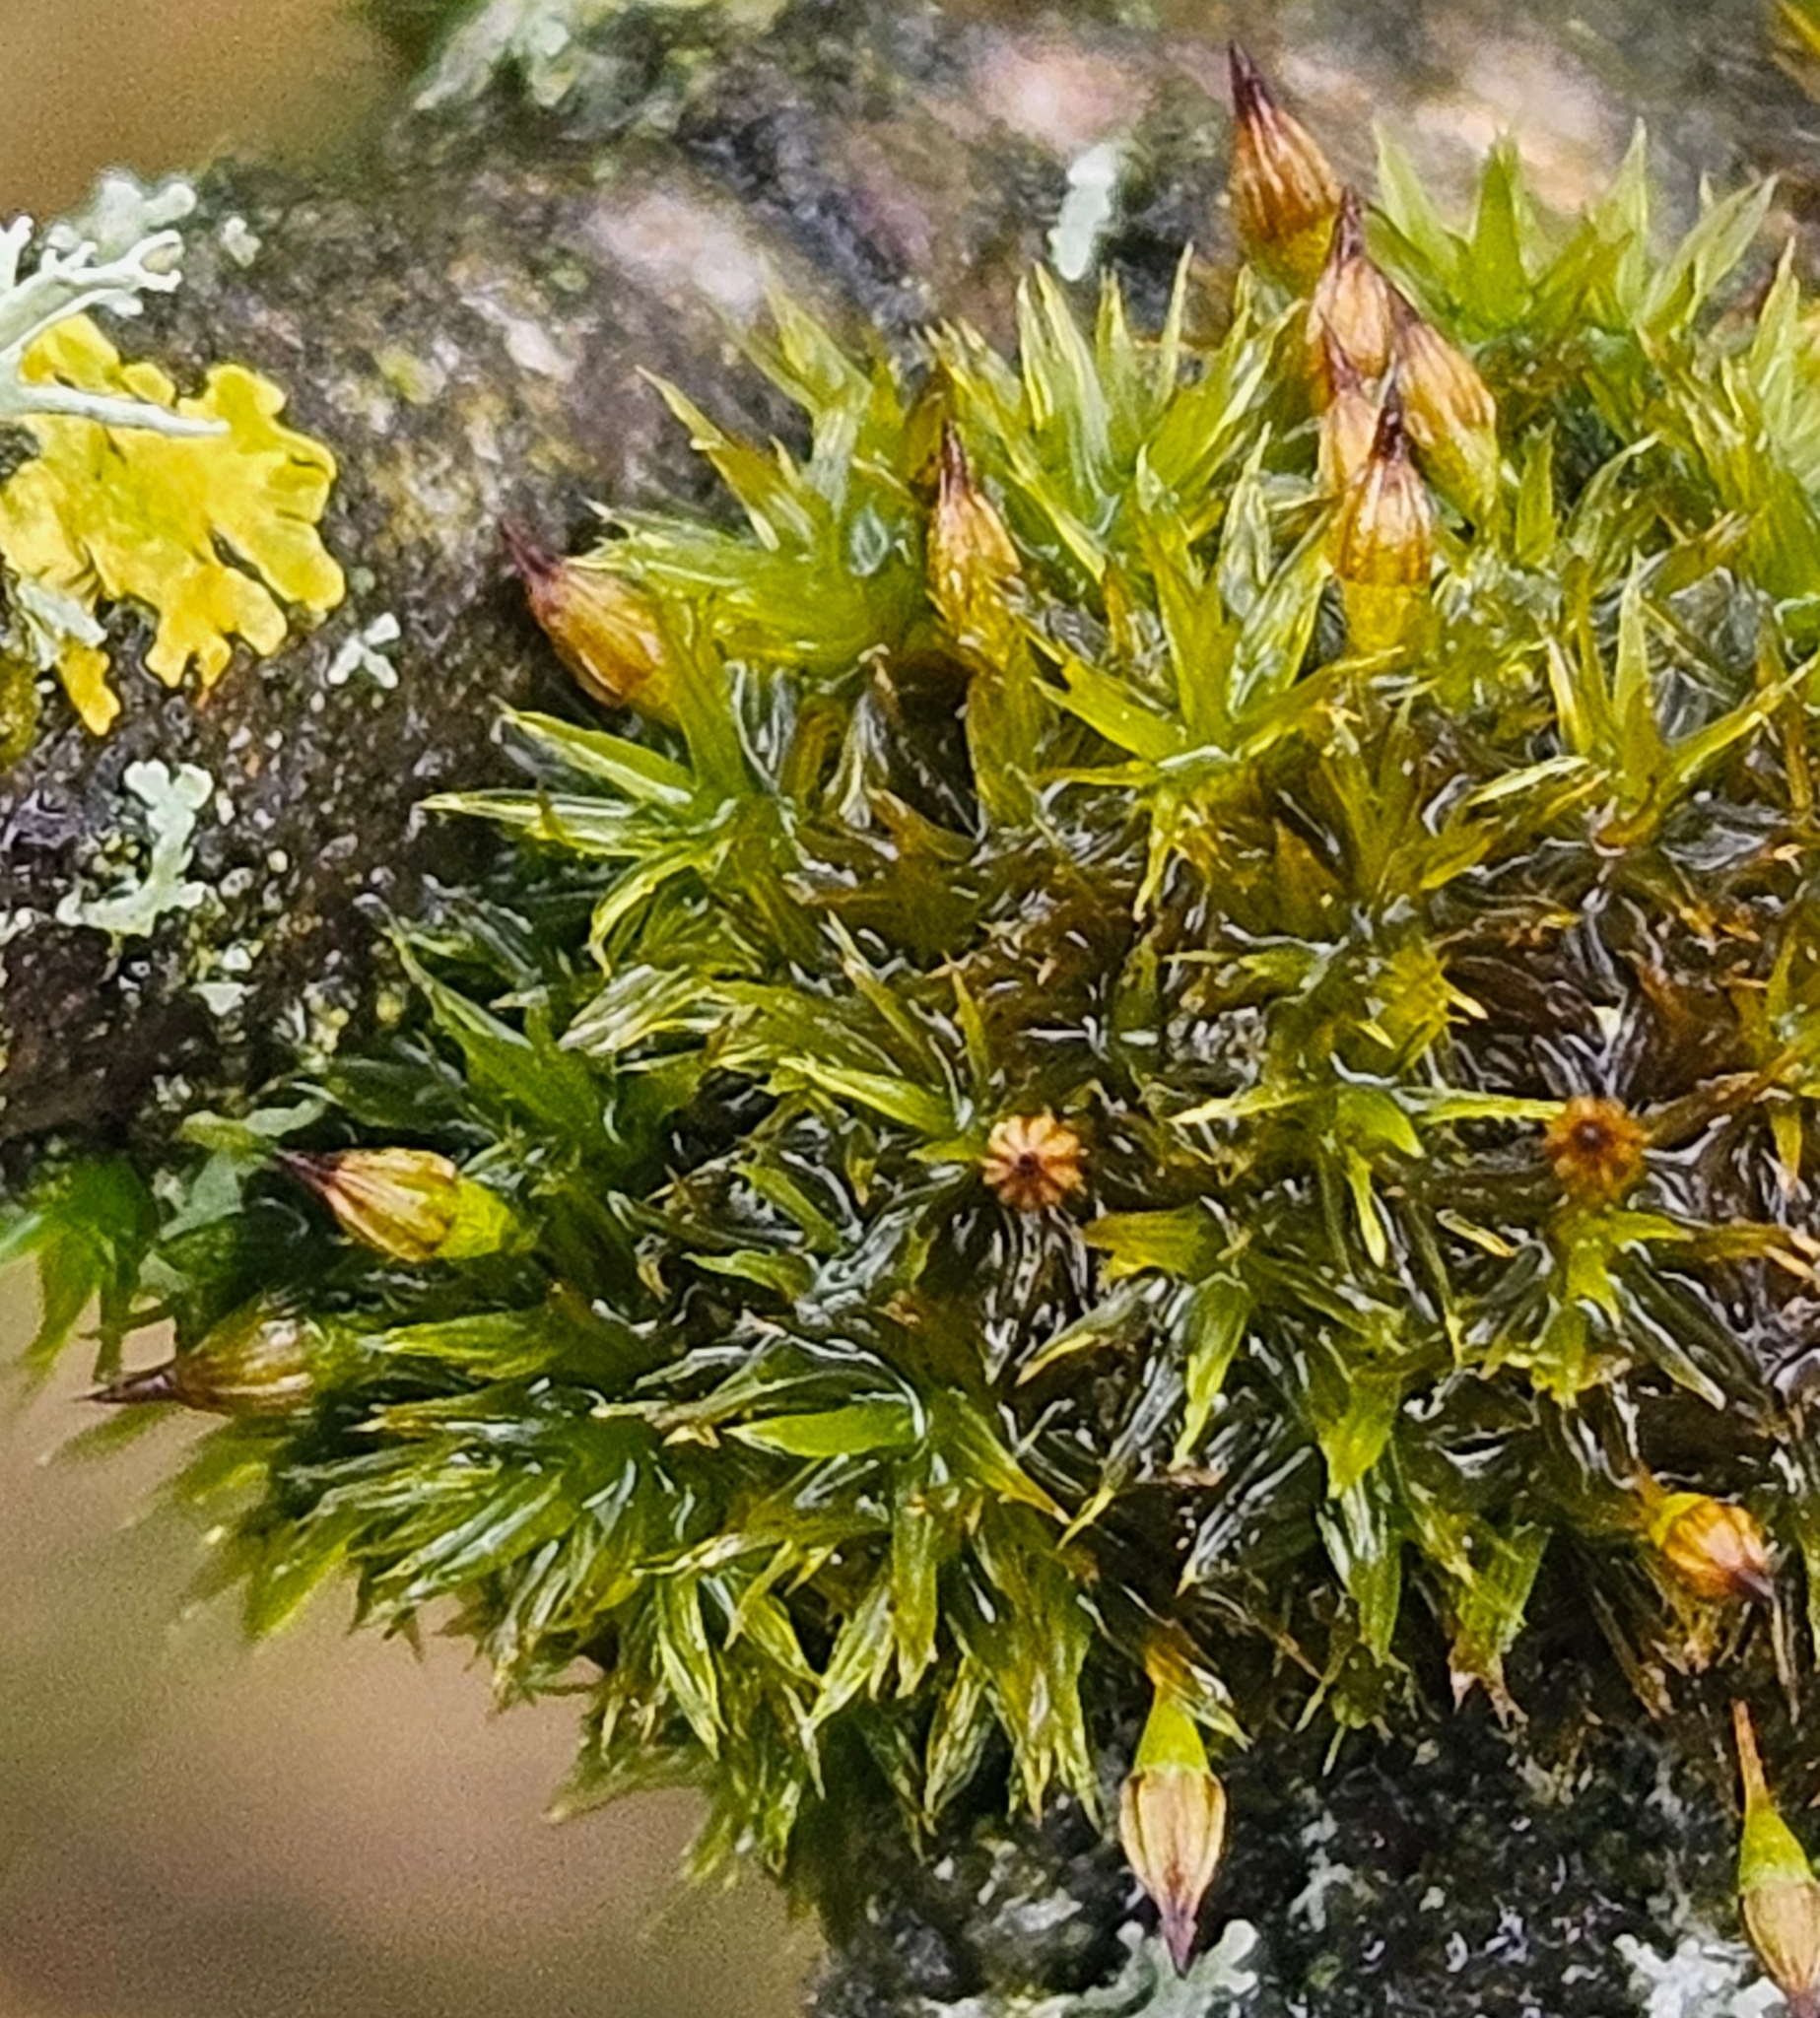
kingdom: Plantae
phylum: Bryophyta
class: Bryopsida
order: Orthotrichales
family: Orthotrichaceae
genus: Orthotrichum
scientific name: Orthotrichum pulchellum
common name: Elegant bristle-moss
